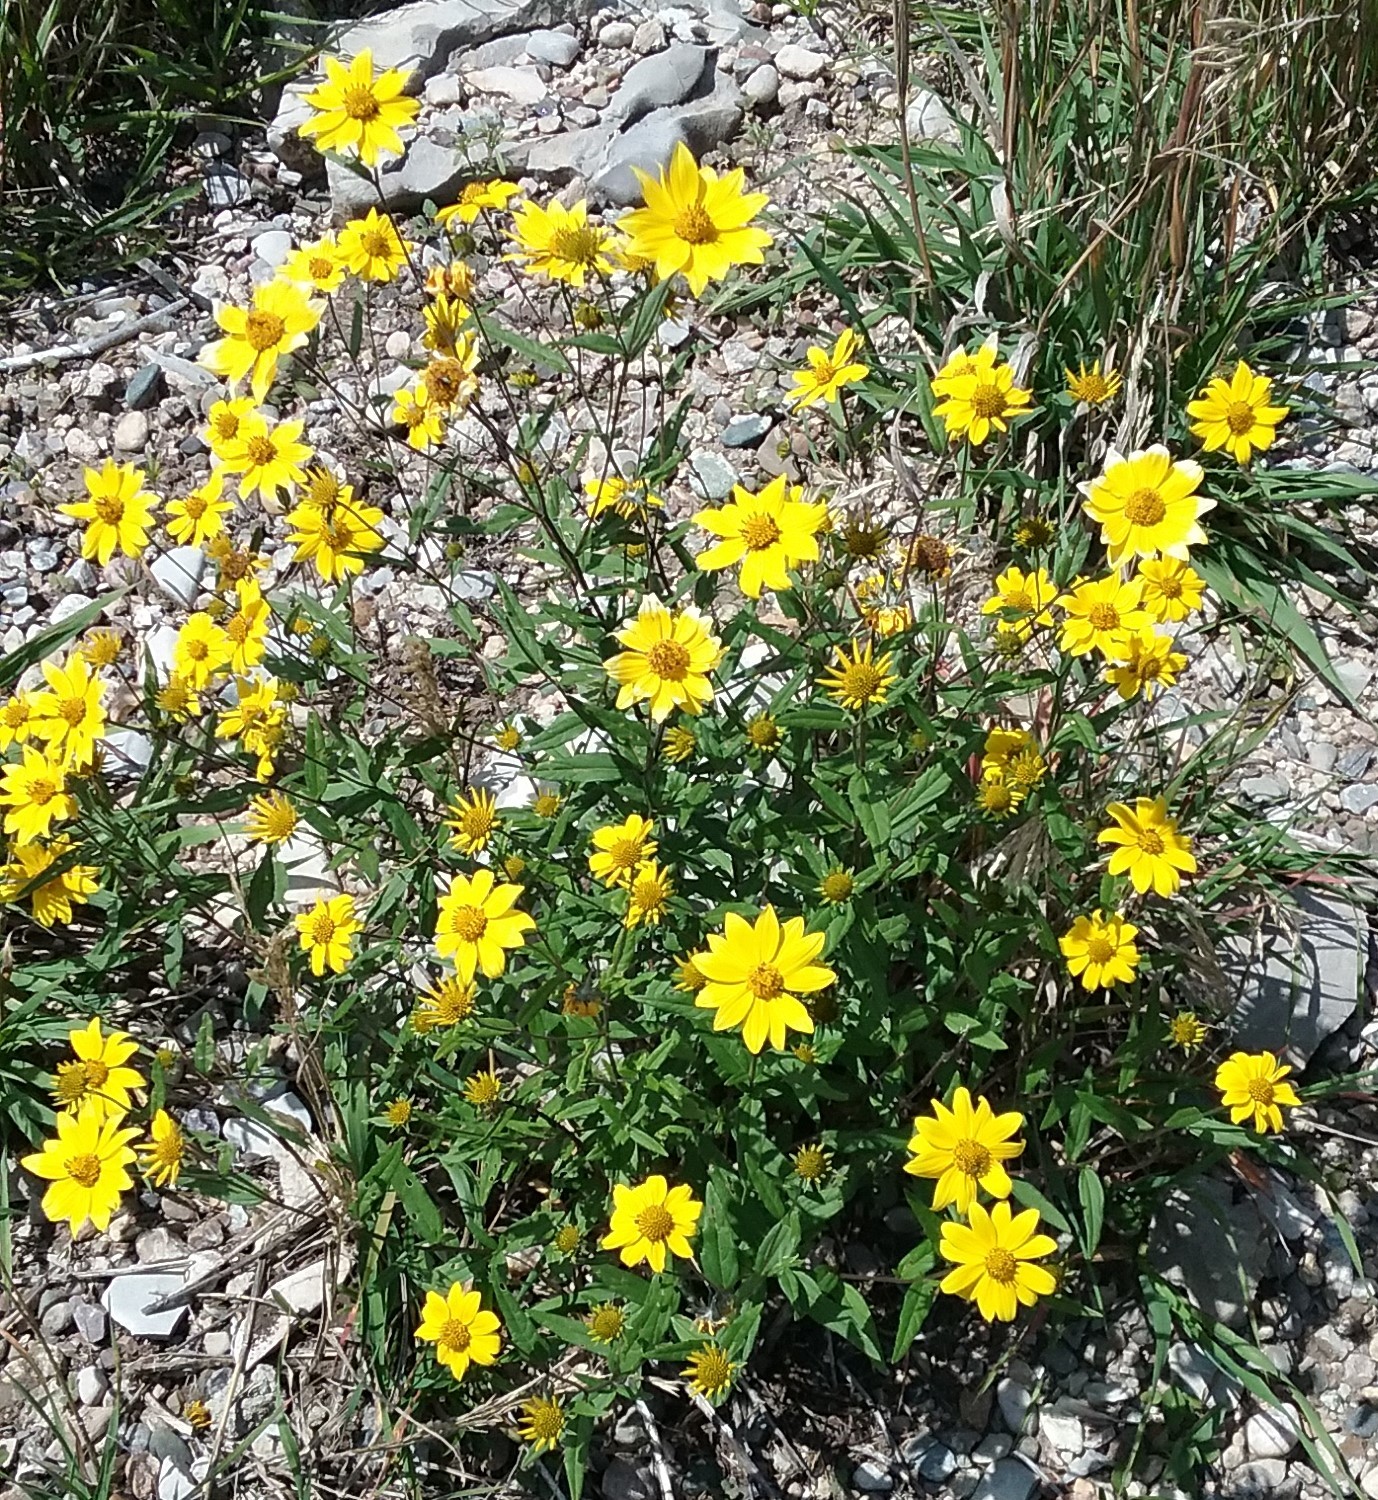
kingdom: Plantae
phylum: Tracheophyta
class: Magnoliopsida
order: Asterales
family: Asteraceae
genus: Heliomeris
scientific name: Heliomeris multiflora
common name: Showy goldeneye
